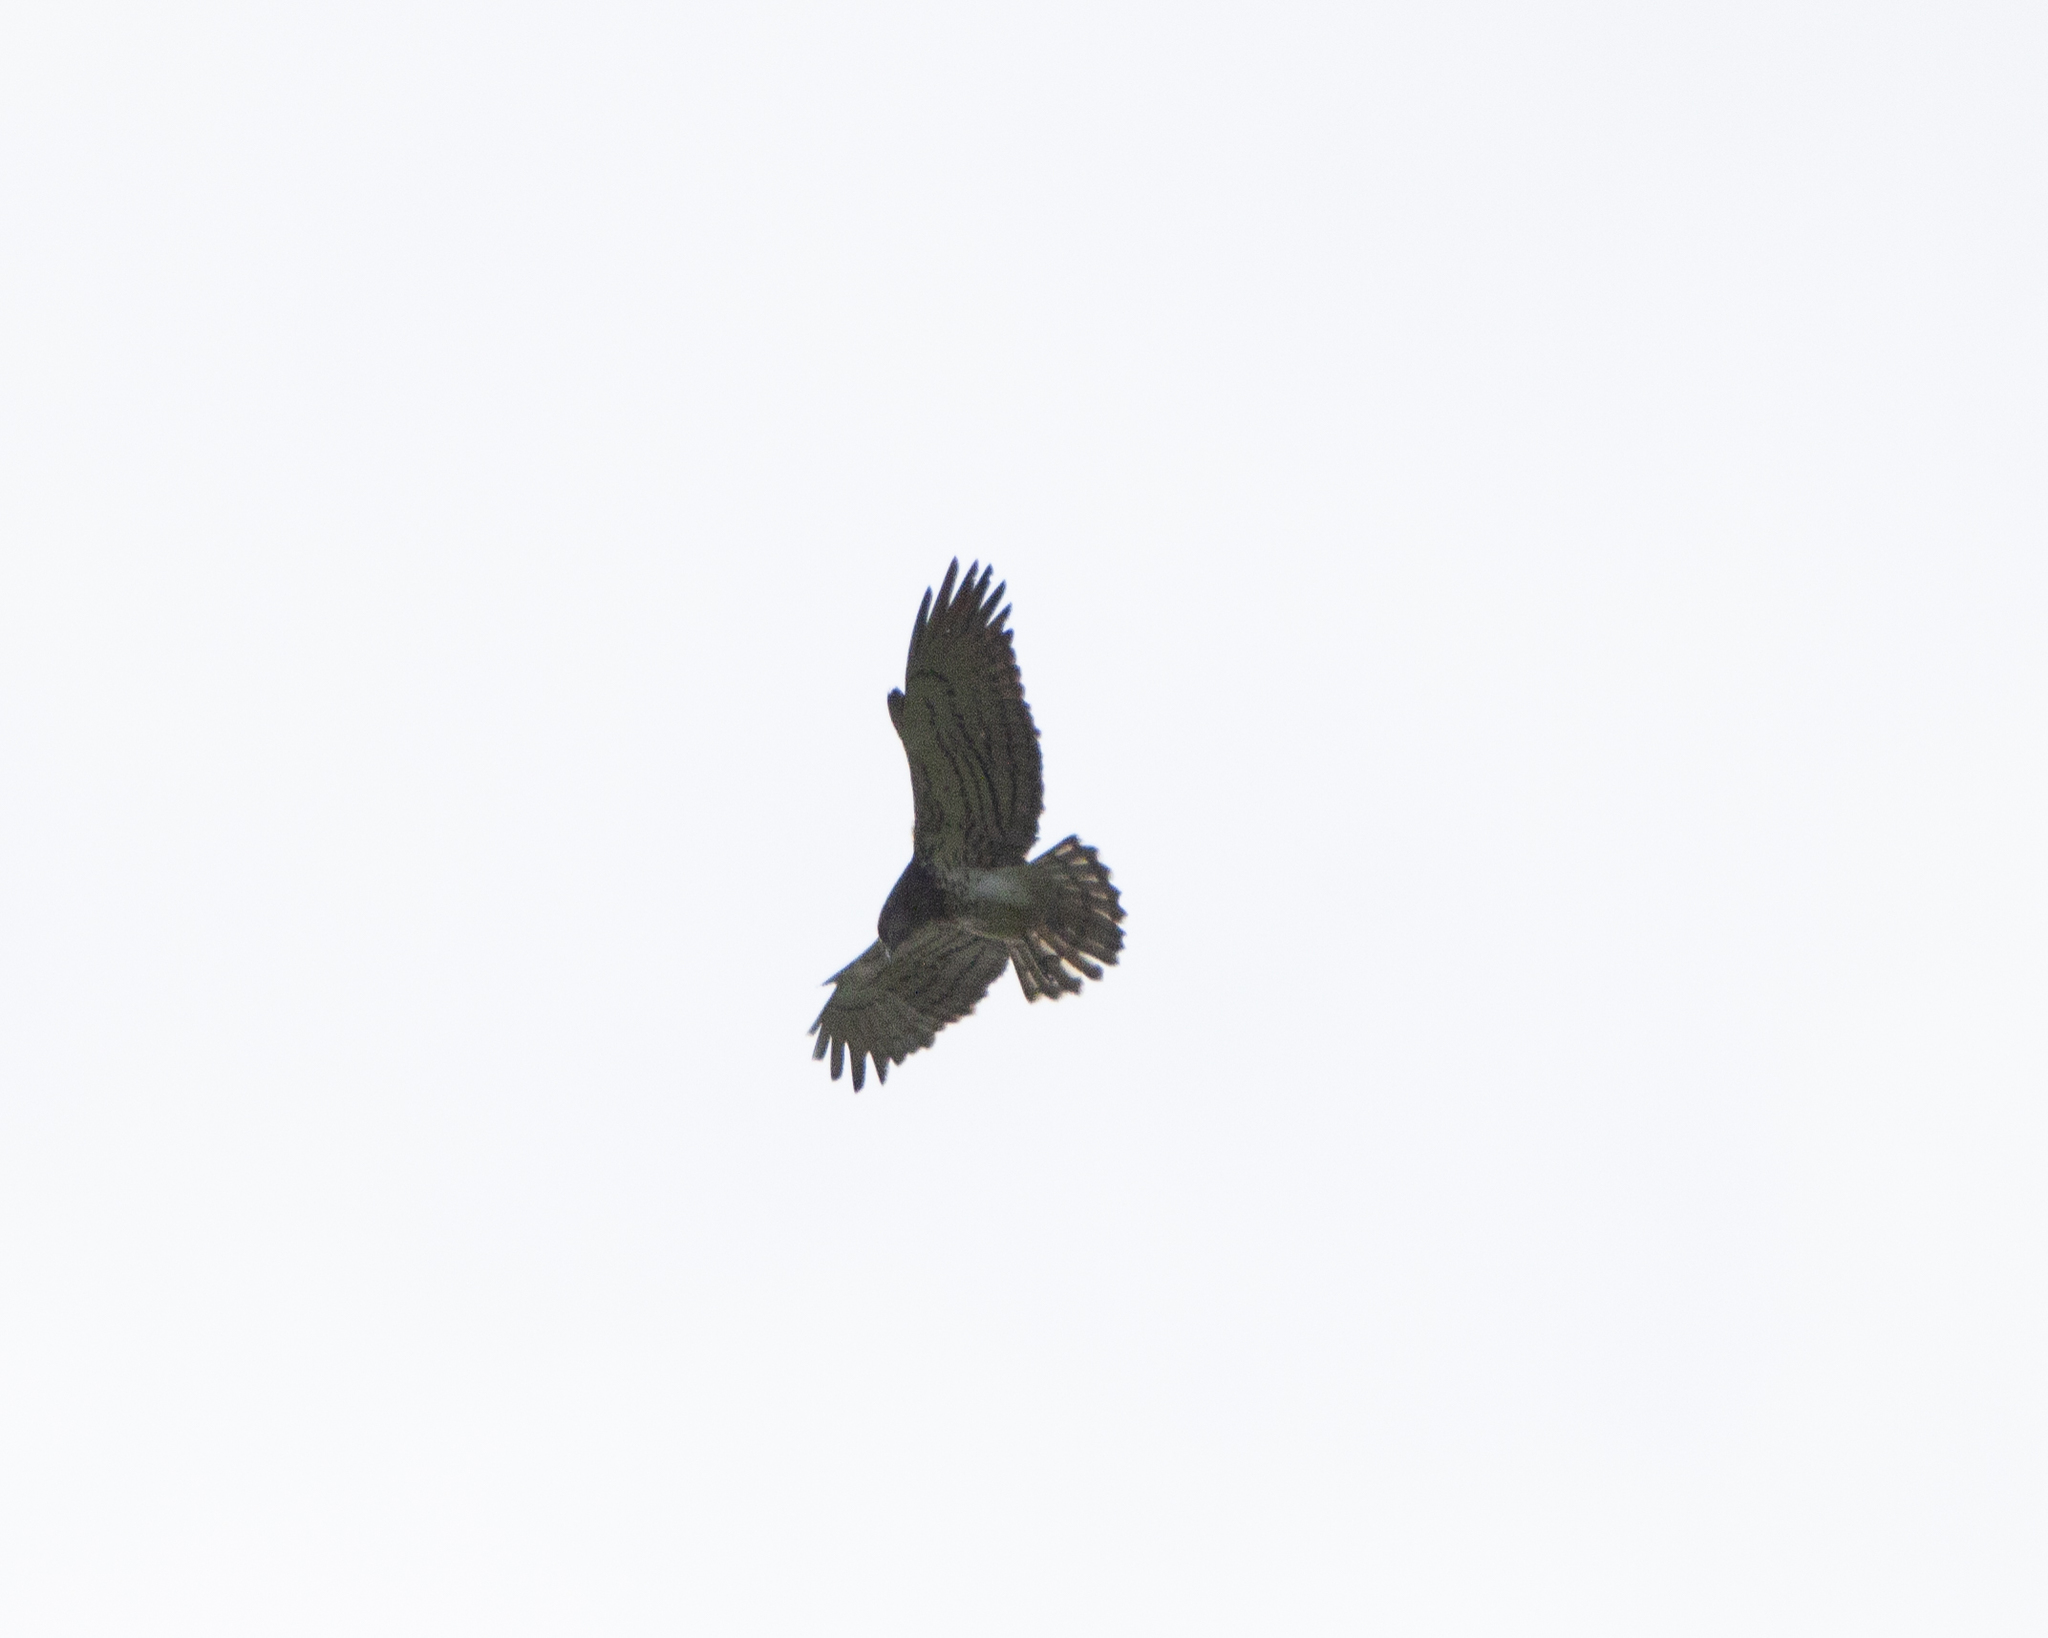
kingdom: Animalia
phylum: Chordata
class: Aves
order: Accipitriformes
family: Accipitridae
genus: Circaetus
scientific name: Circaetus gallicus
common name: Short-toed snake eagle
